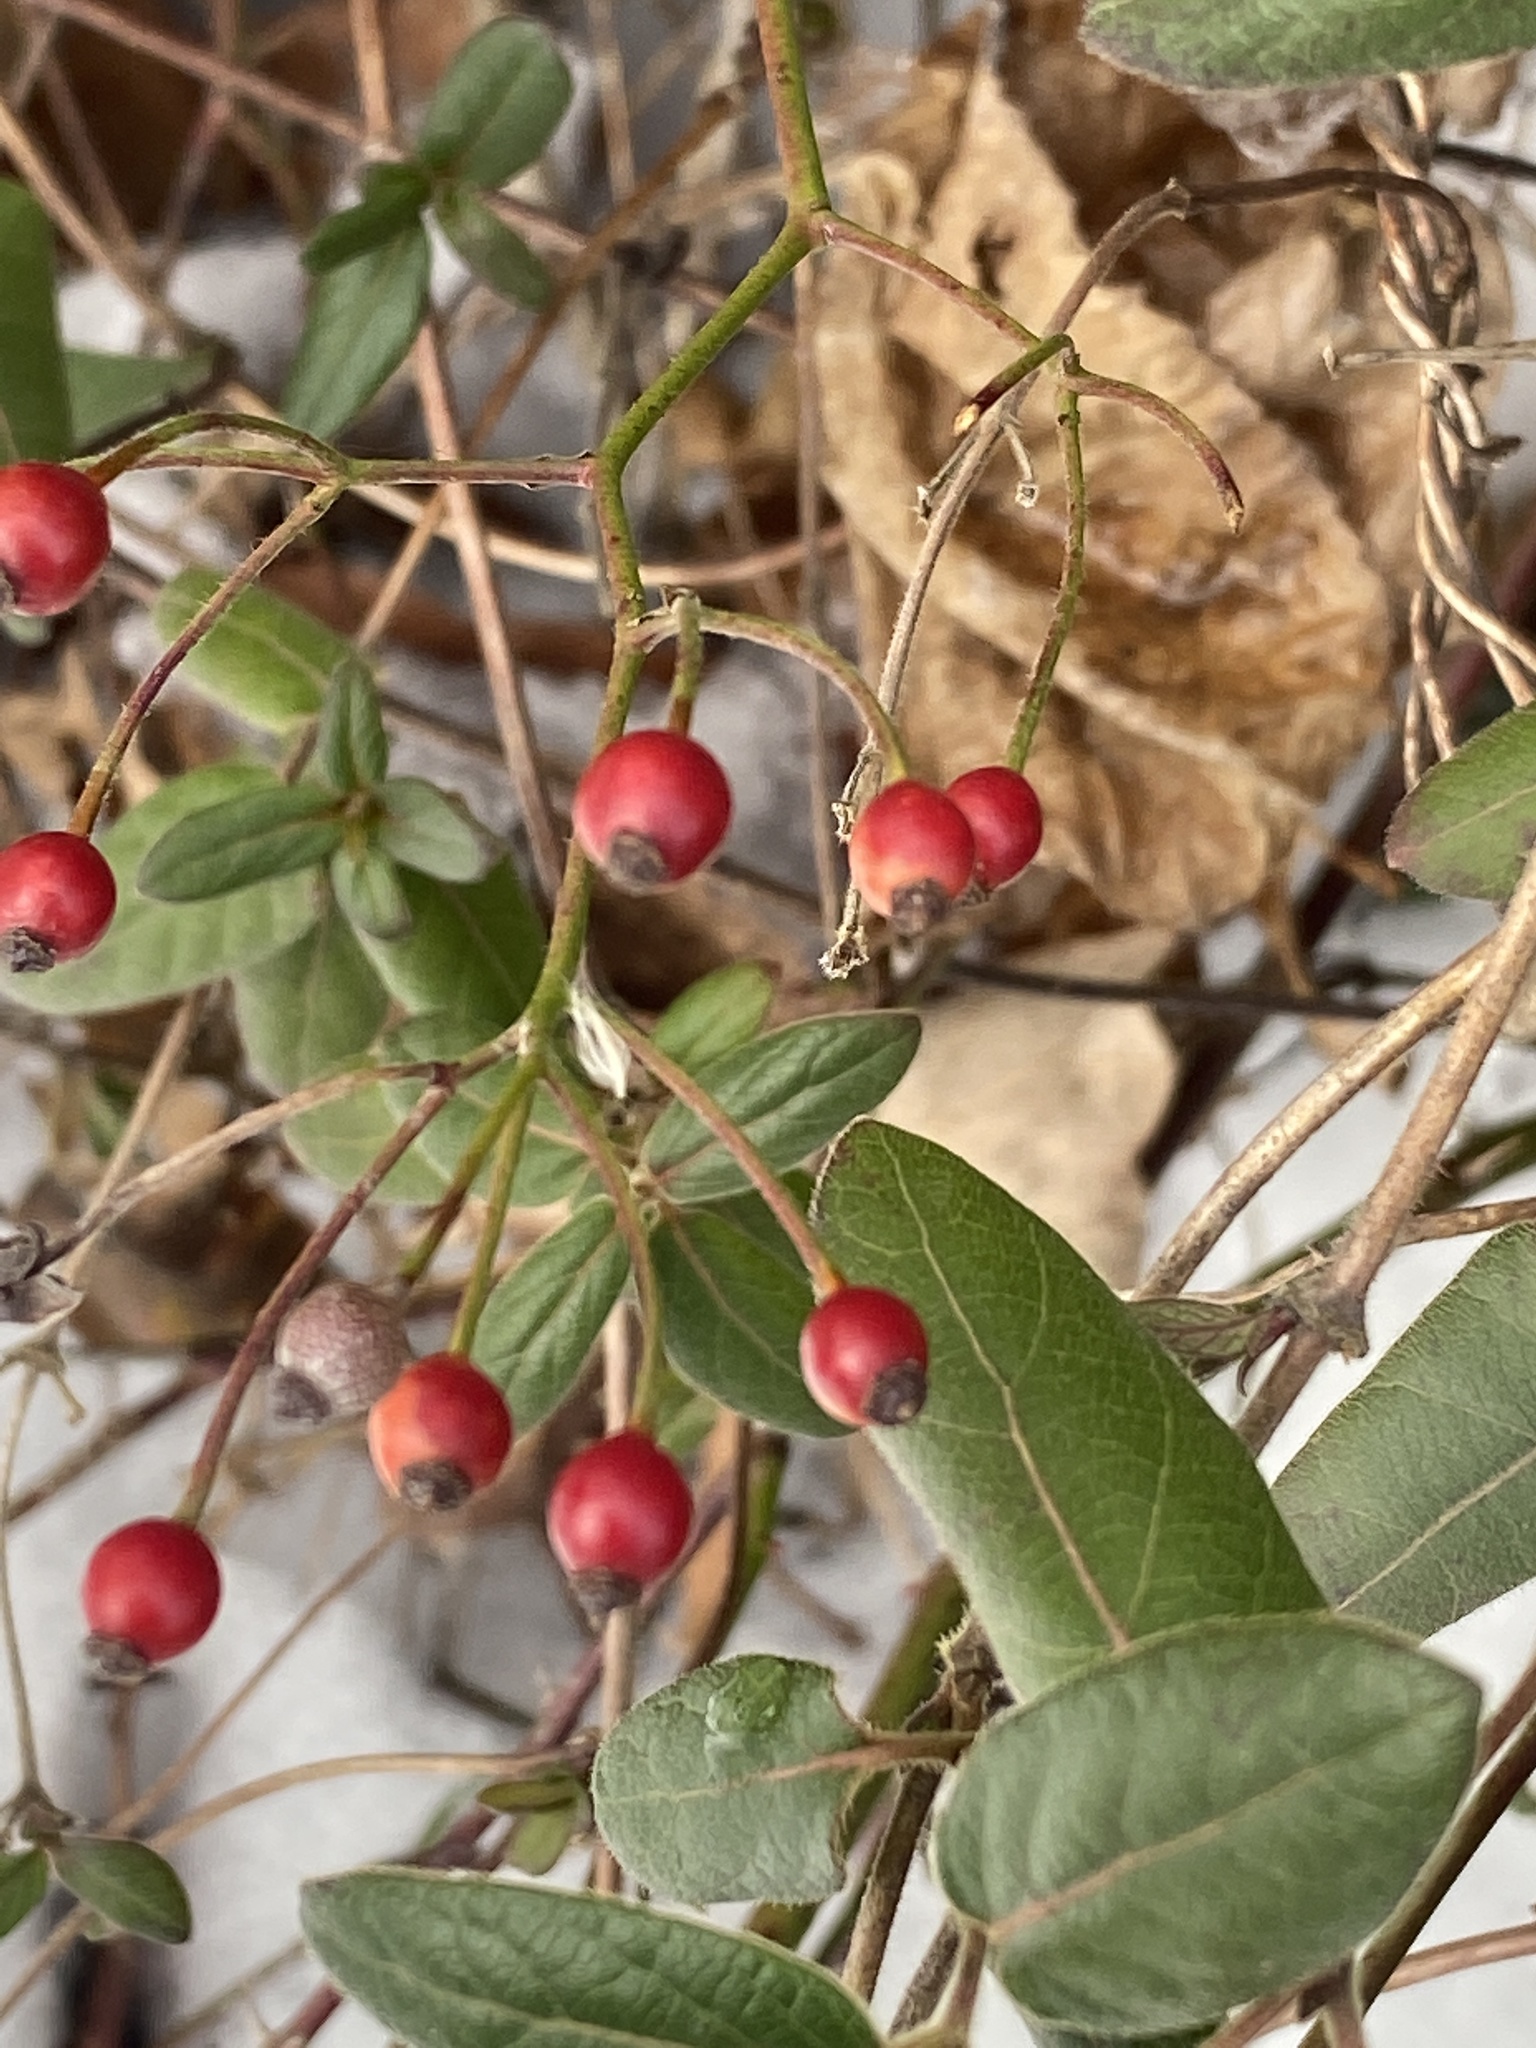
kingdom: Plantae
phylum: Tracheophyta
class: Magnoliopsida
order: Rosales
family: Rosaceae
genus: Rosa
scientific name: Rosa multiflora
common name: Multiflora rose
